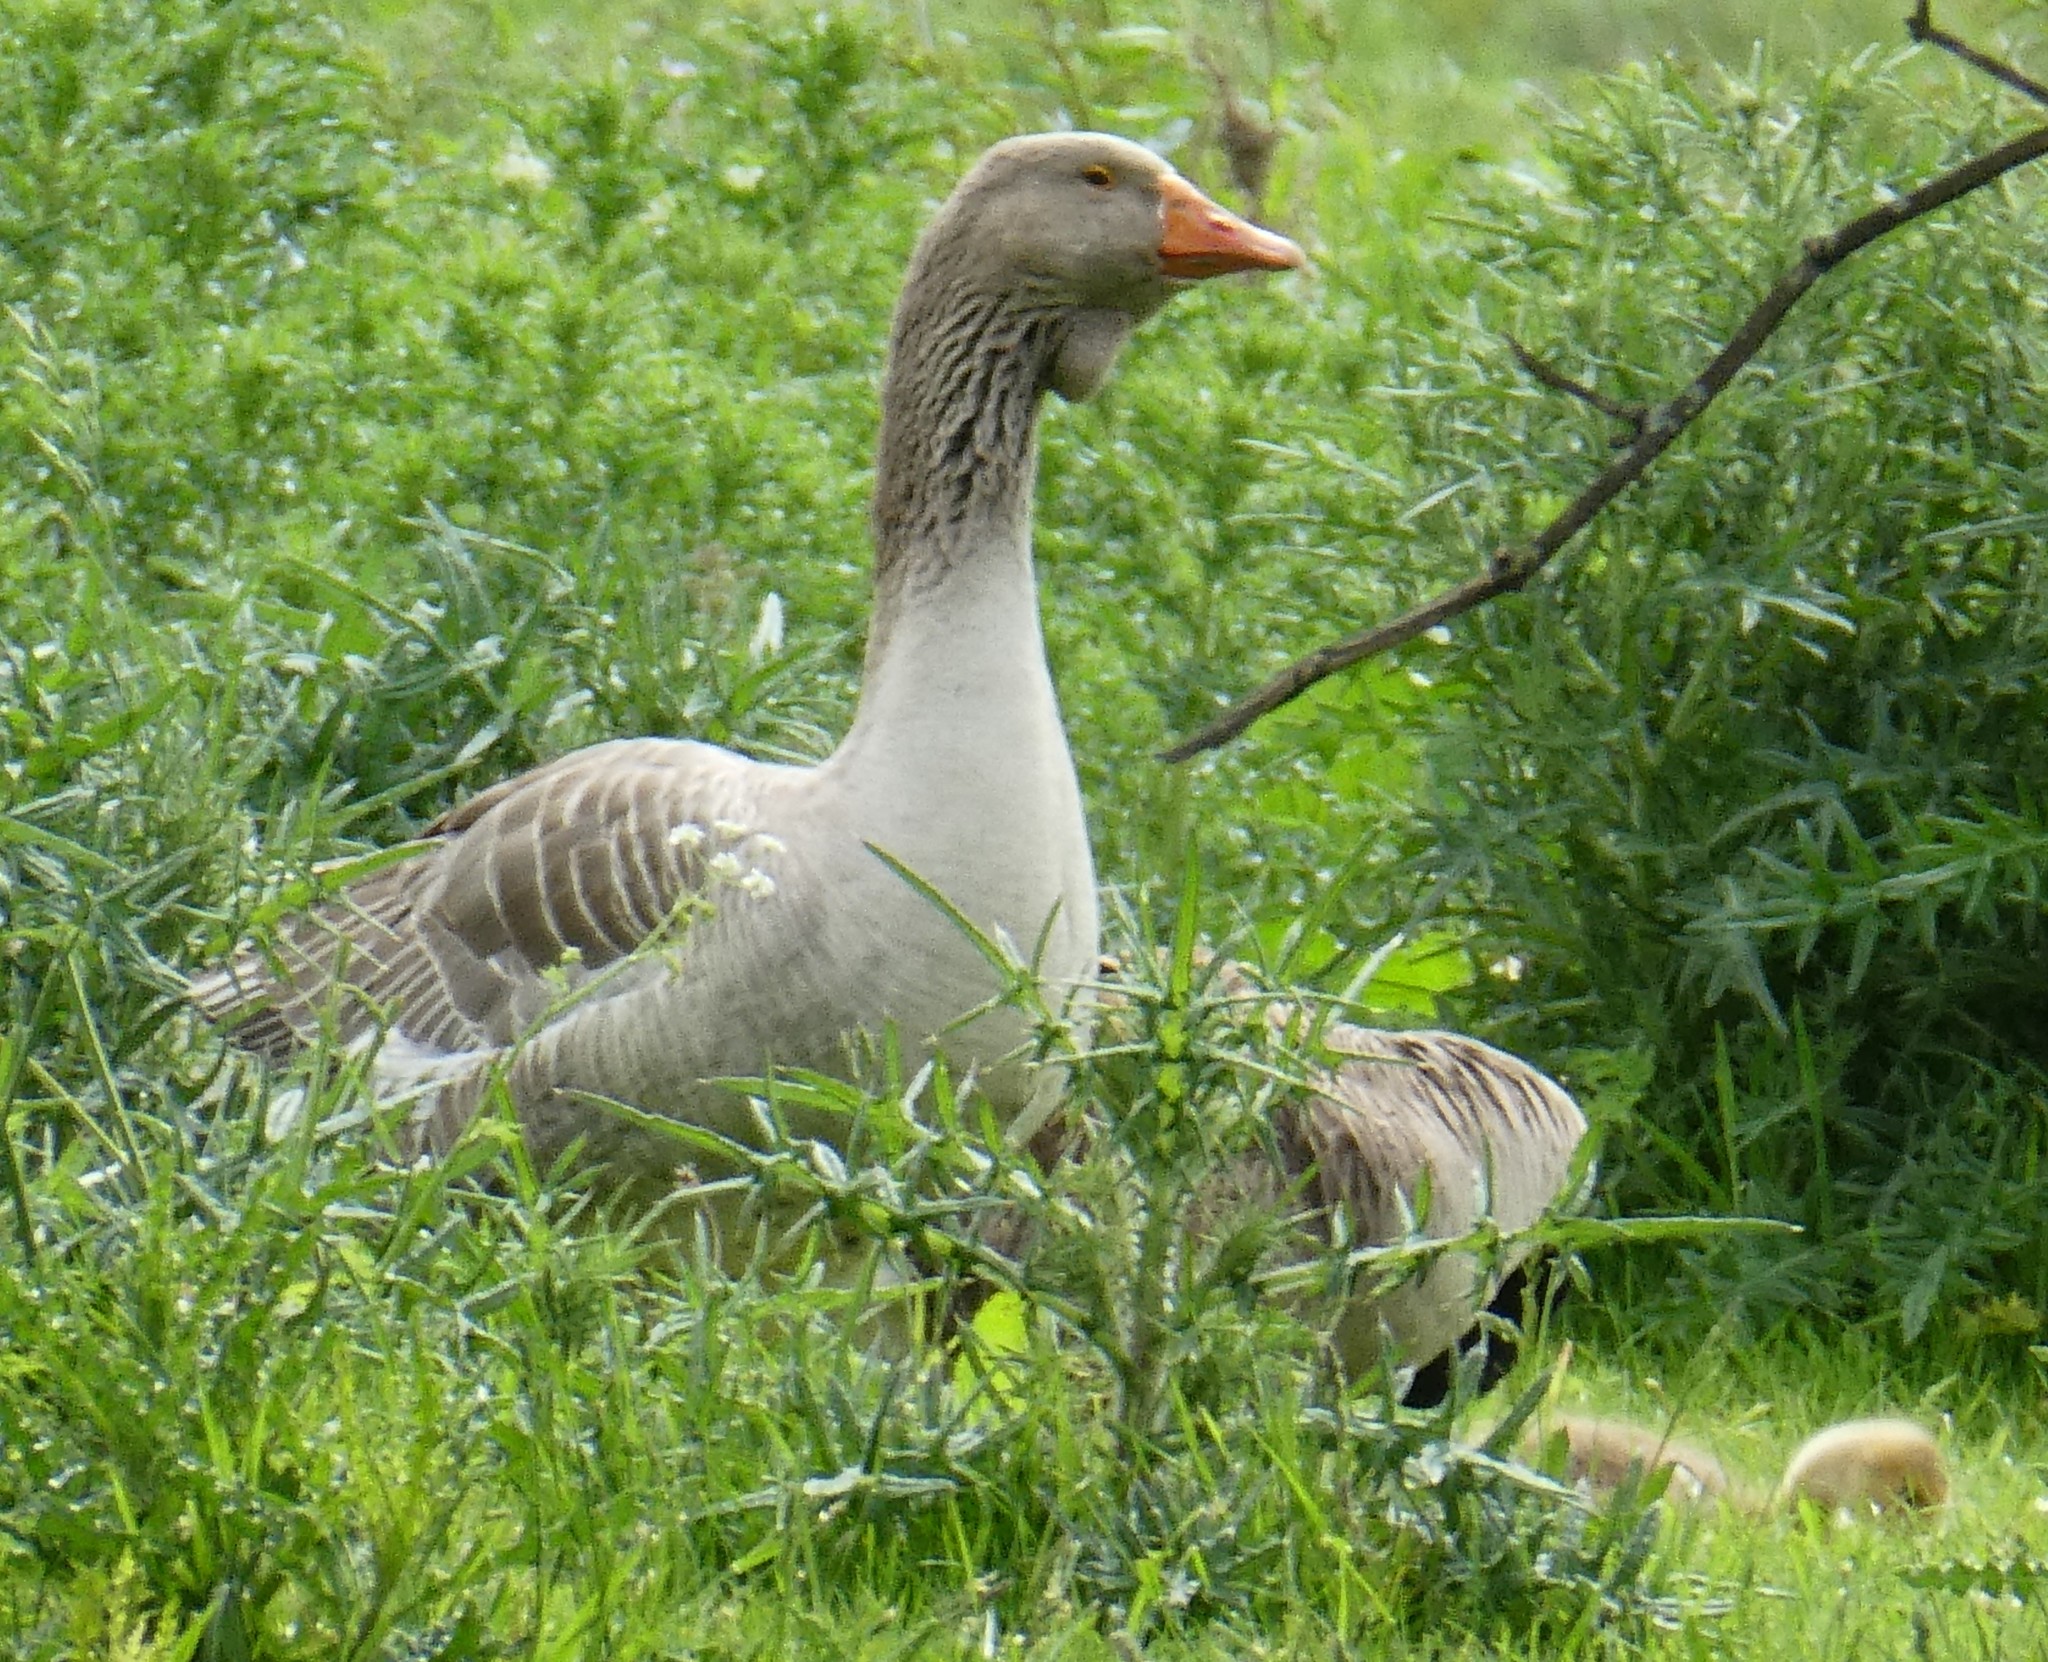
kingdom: Animalia
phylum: Chordata
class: Aves
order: Anseriformes
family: Anatidae
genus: Anser
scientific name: Anser anser
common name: Greylag goose
